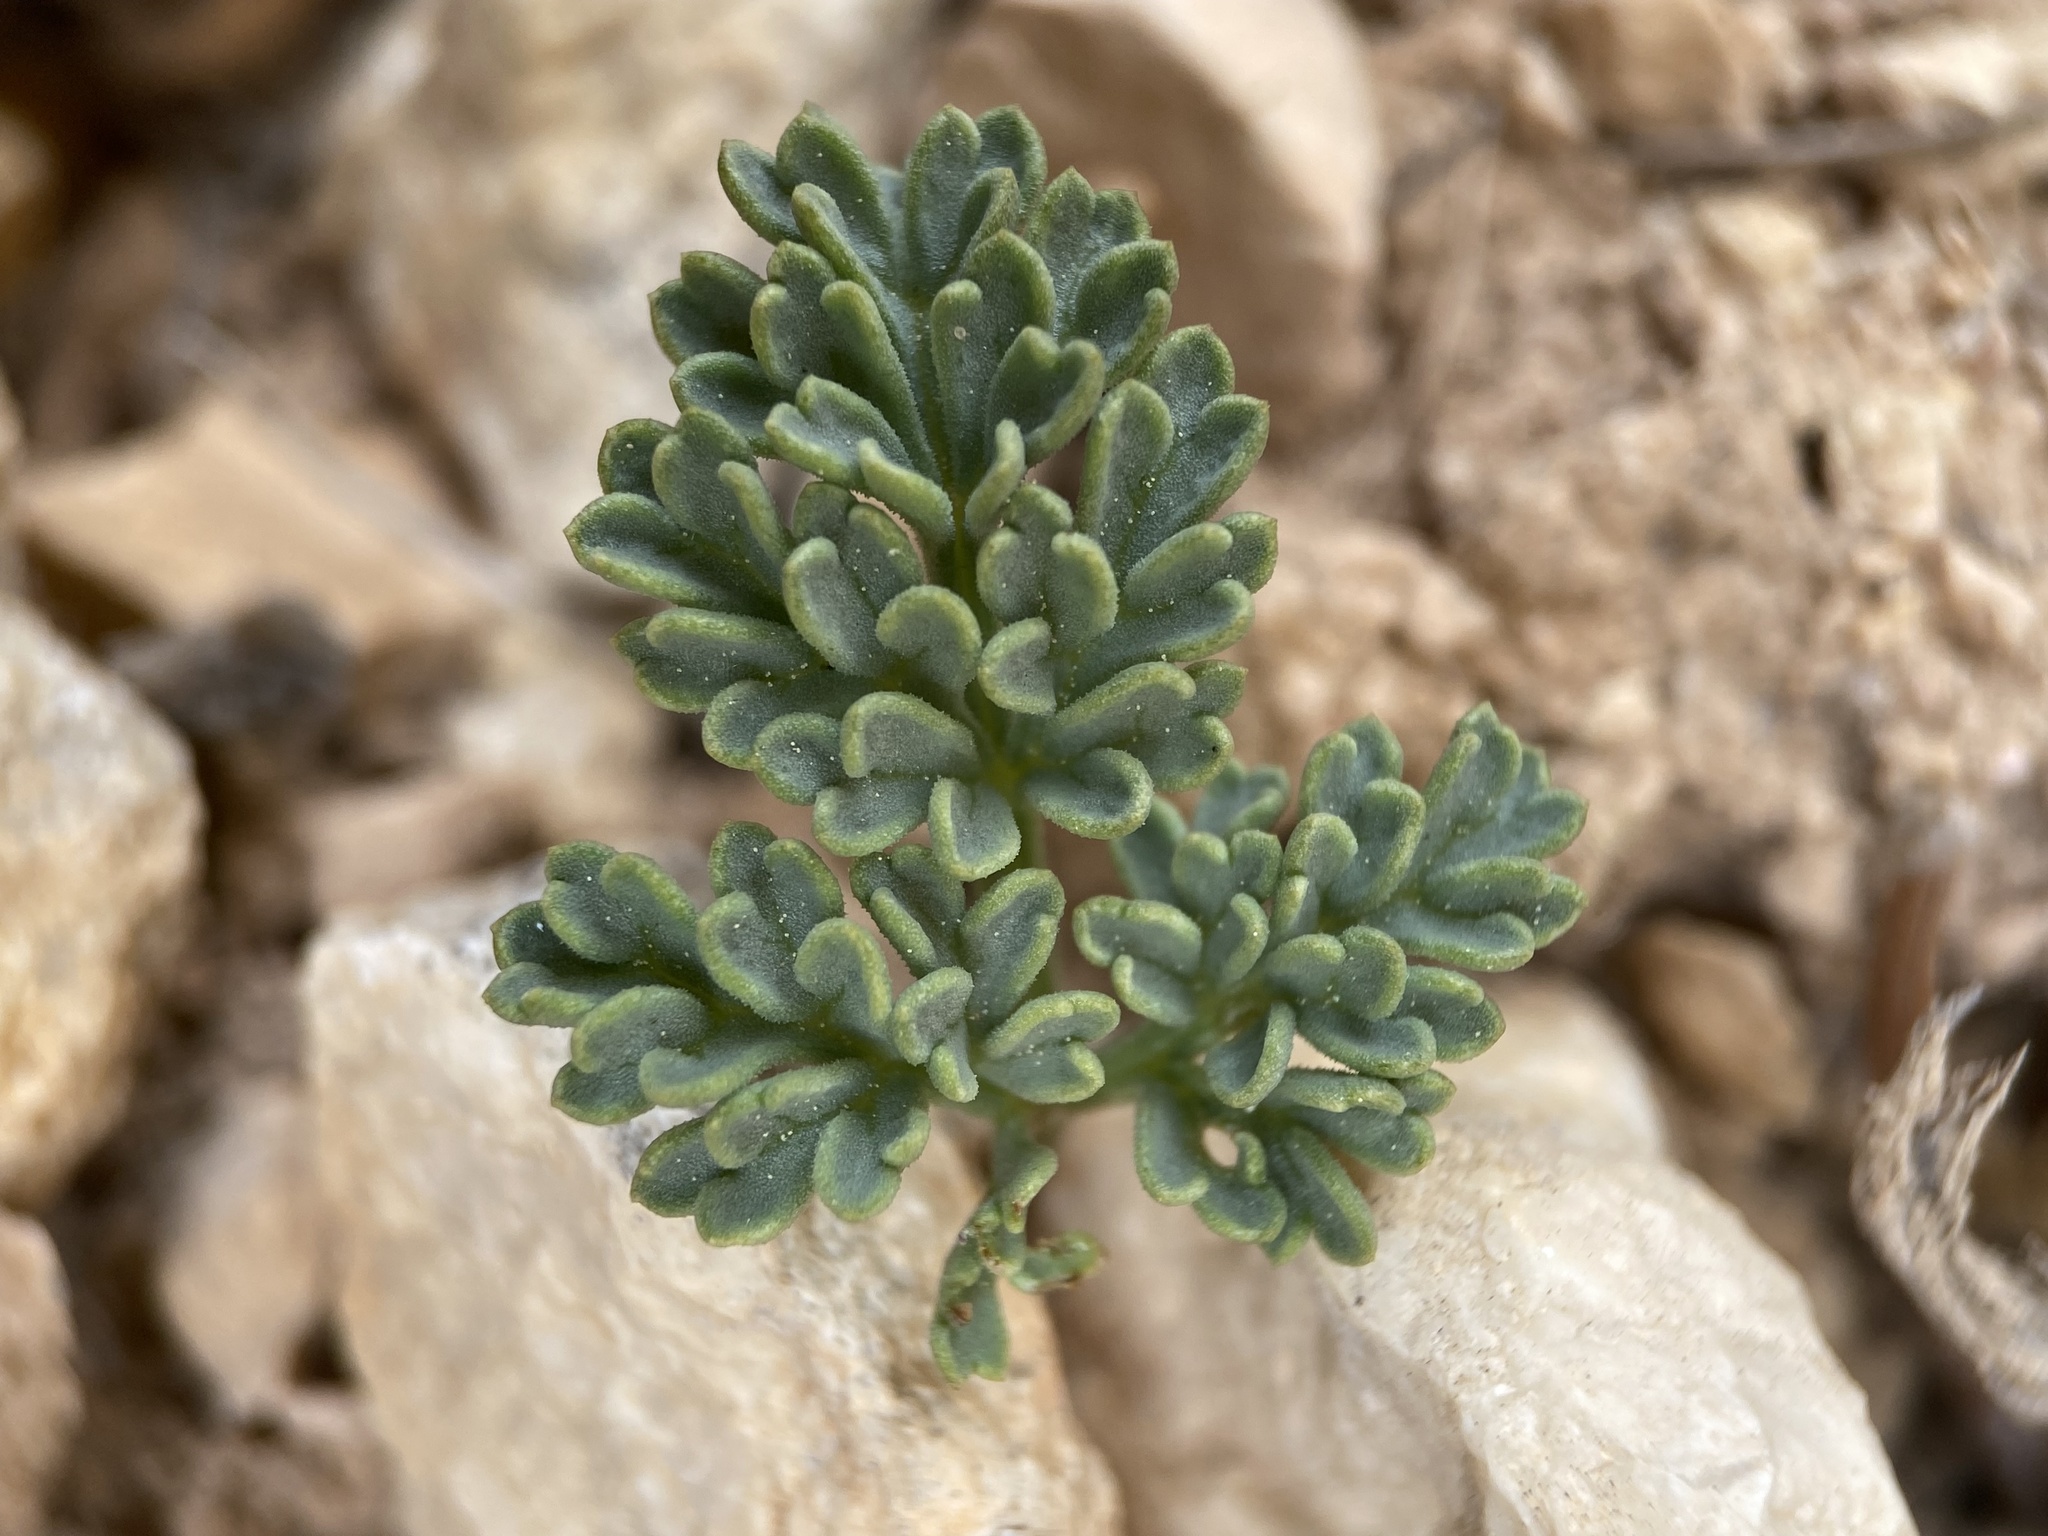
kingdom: Plantae
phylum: Tracheophyta
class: Magnoliopsida
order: Apiales
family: Apiaceae
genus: Aulospermum
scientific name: Aulospermum minimum
